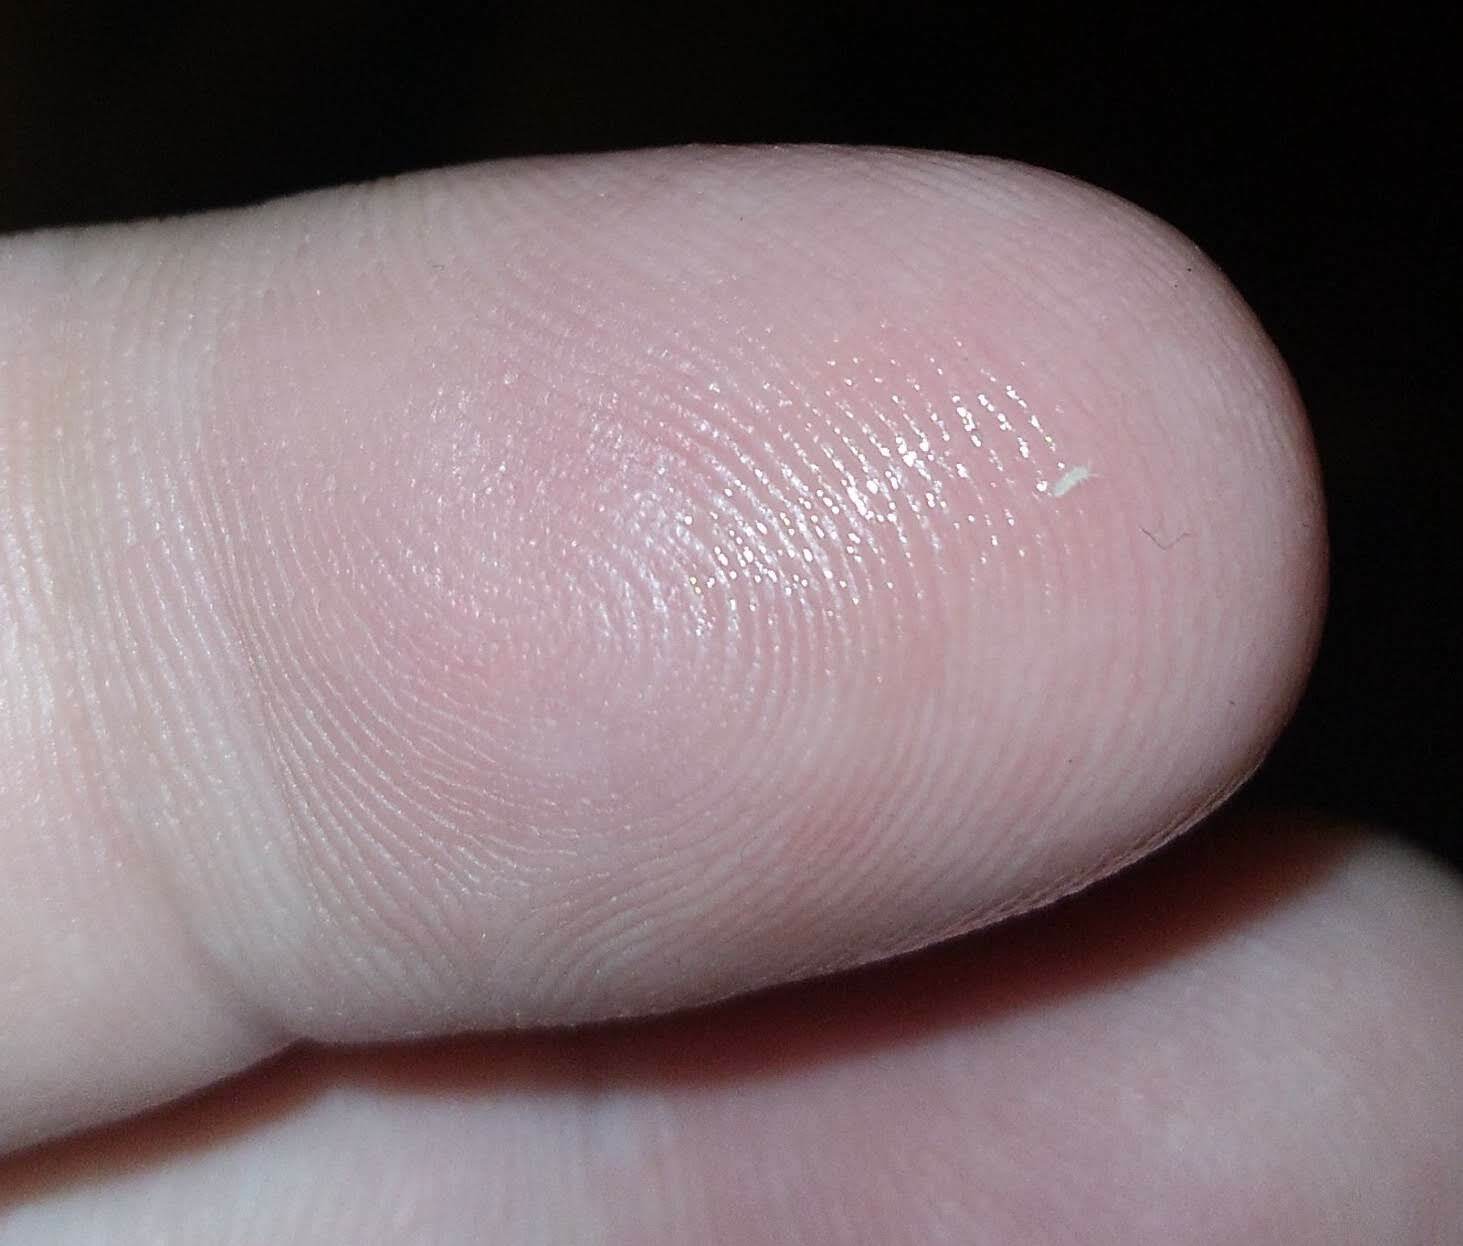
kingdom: Animalia
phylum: Arthropoda
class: Collembola
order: Entomobryomorpha
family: Entomobryidae
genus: Coecobrya
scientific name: Coecobrya tenebricosa
